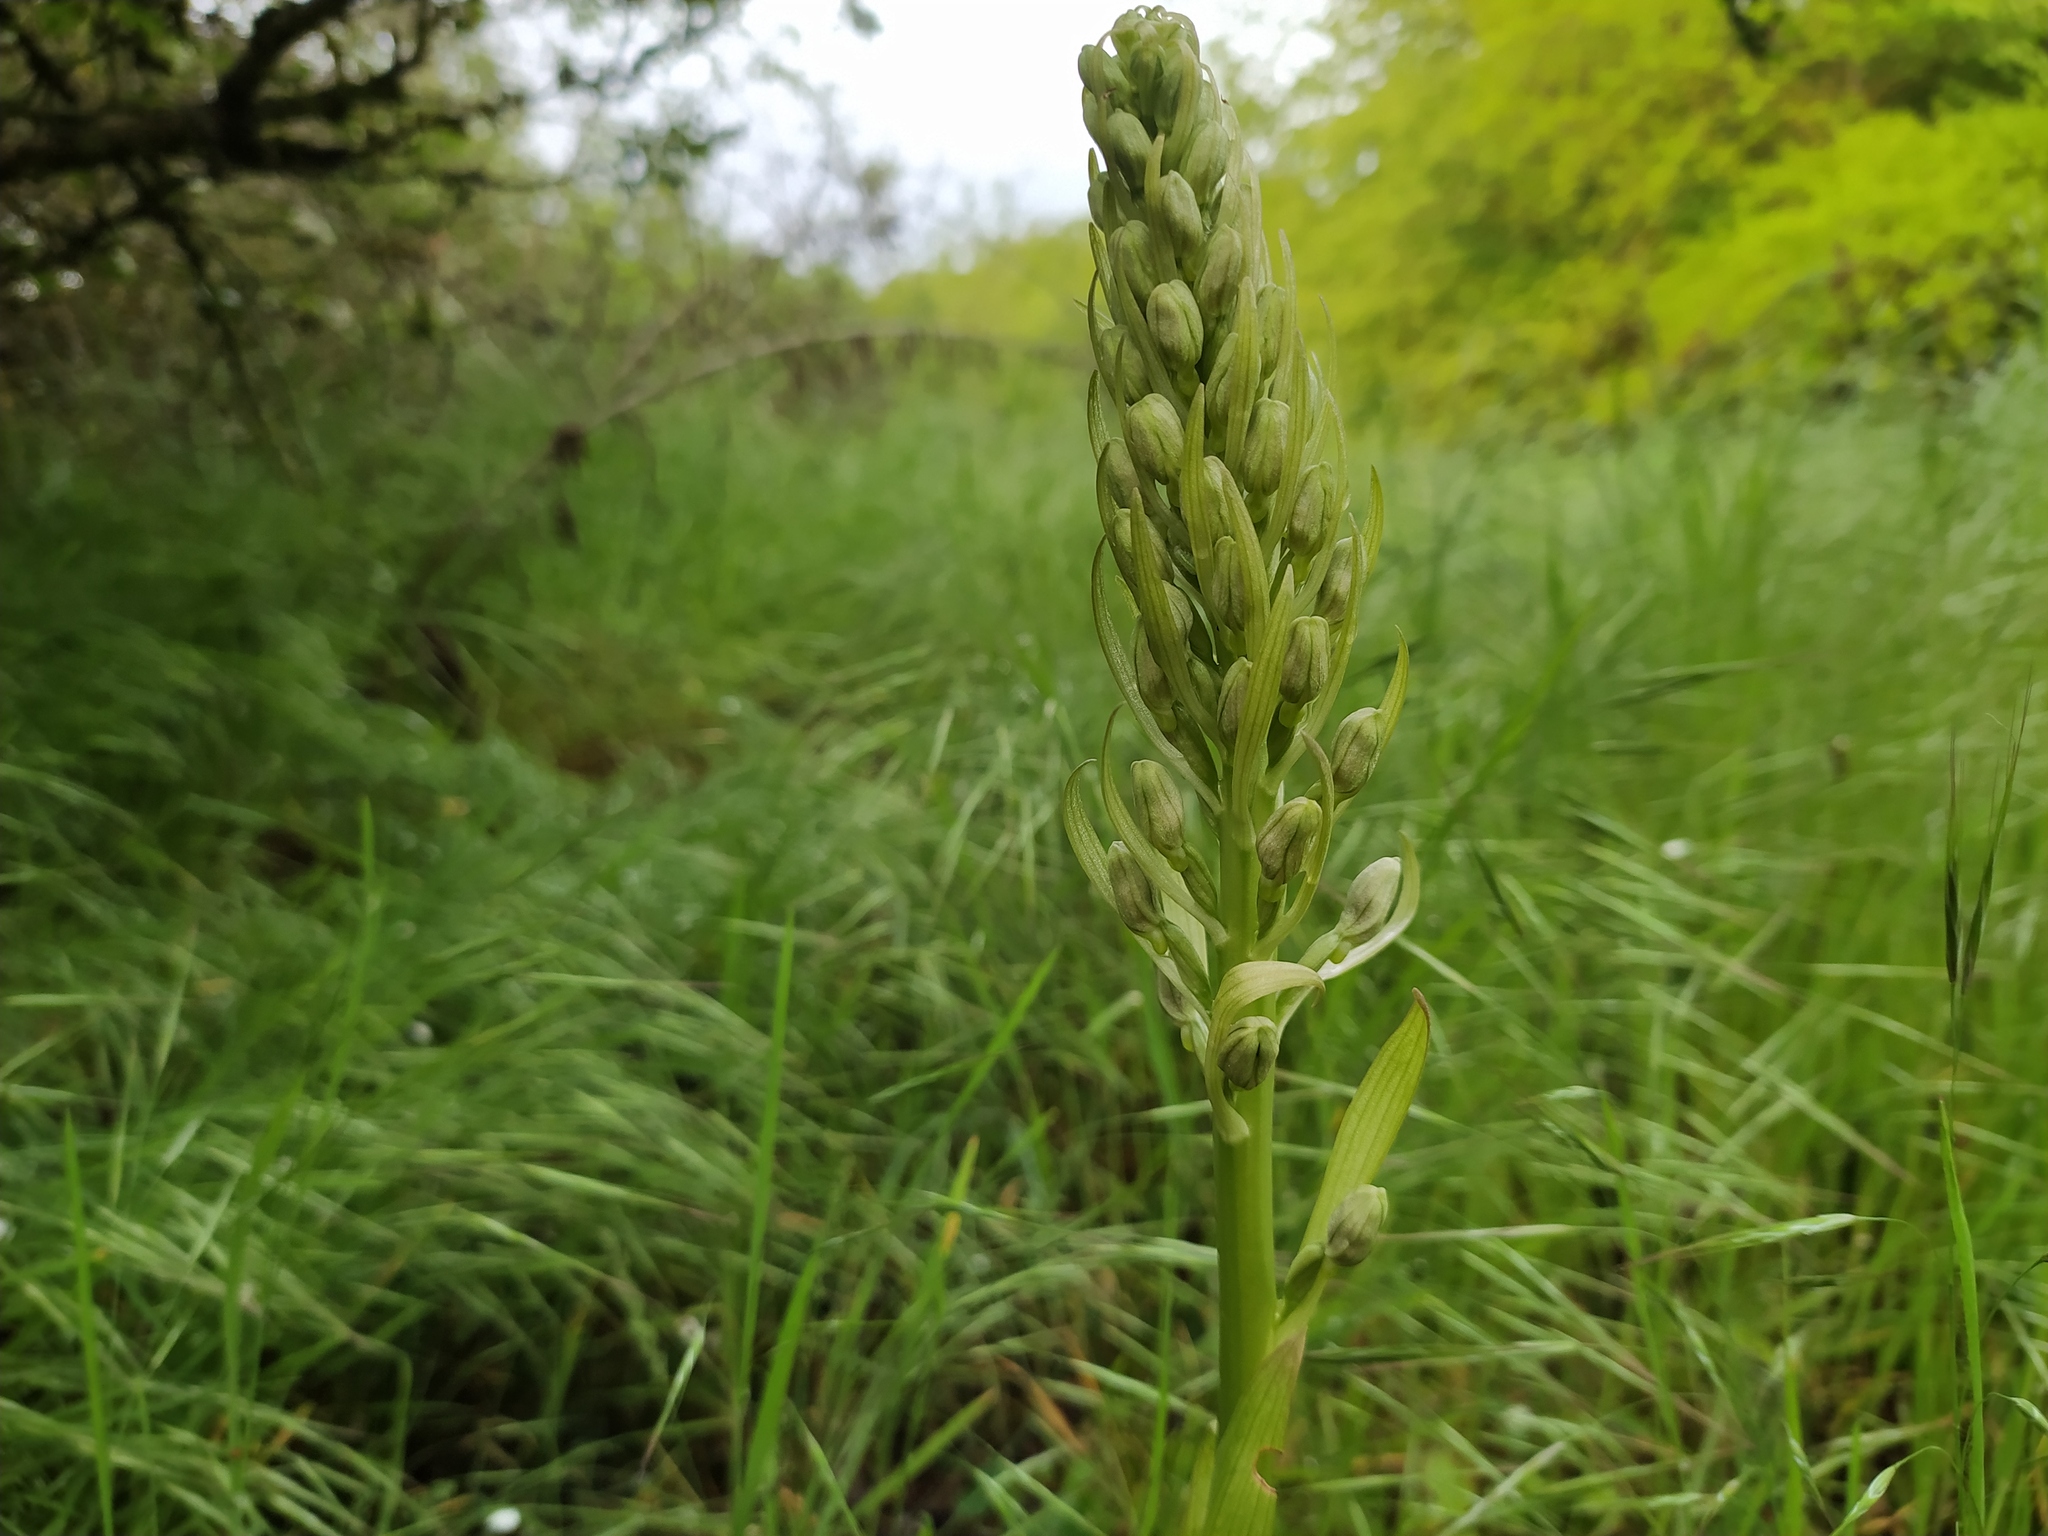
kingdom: Plantae
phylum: Tracheophyta
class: Liliopsida
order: Asparagales
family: Orchidaceae
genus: Himantoglossum
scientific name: Himantoglossum hircinum
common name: Lizard orchid
